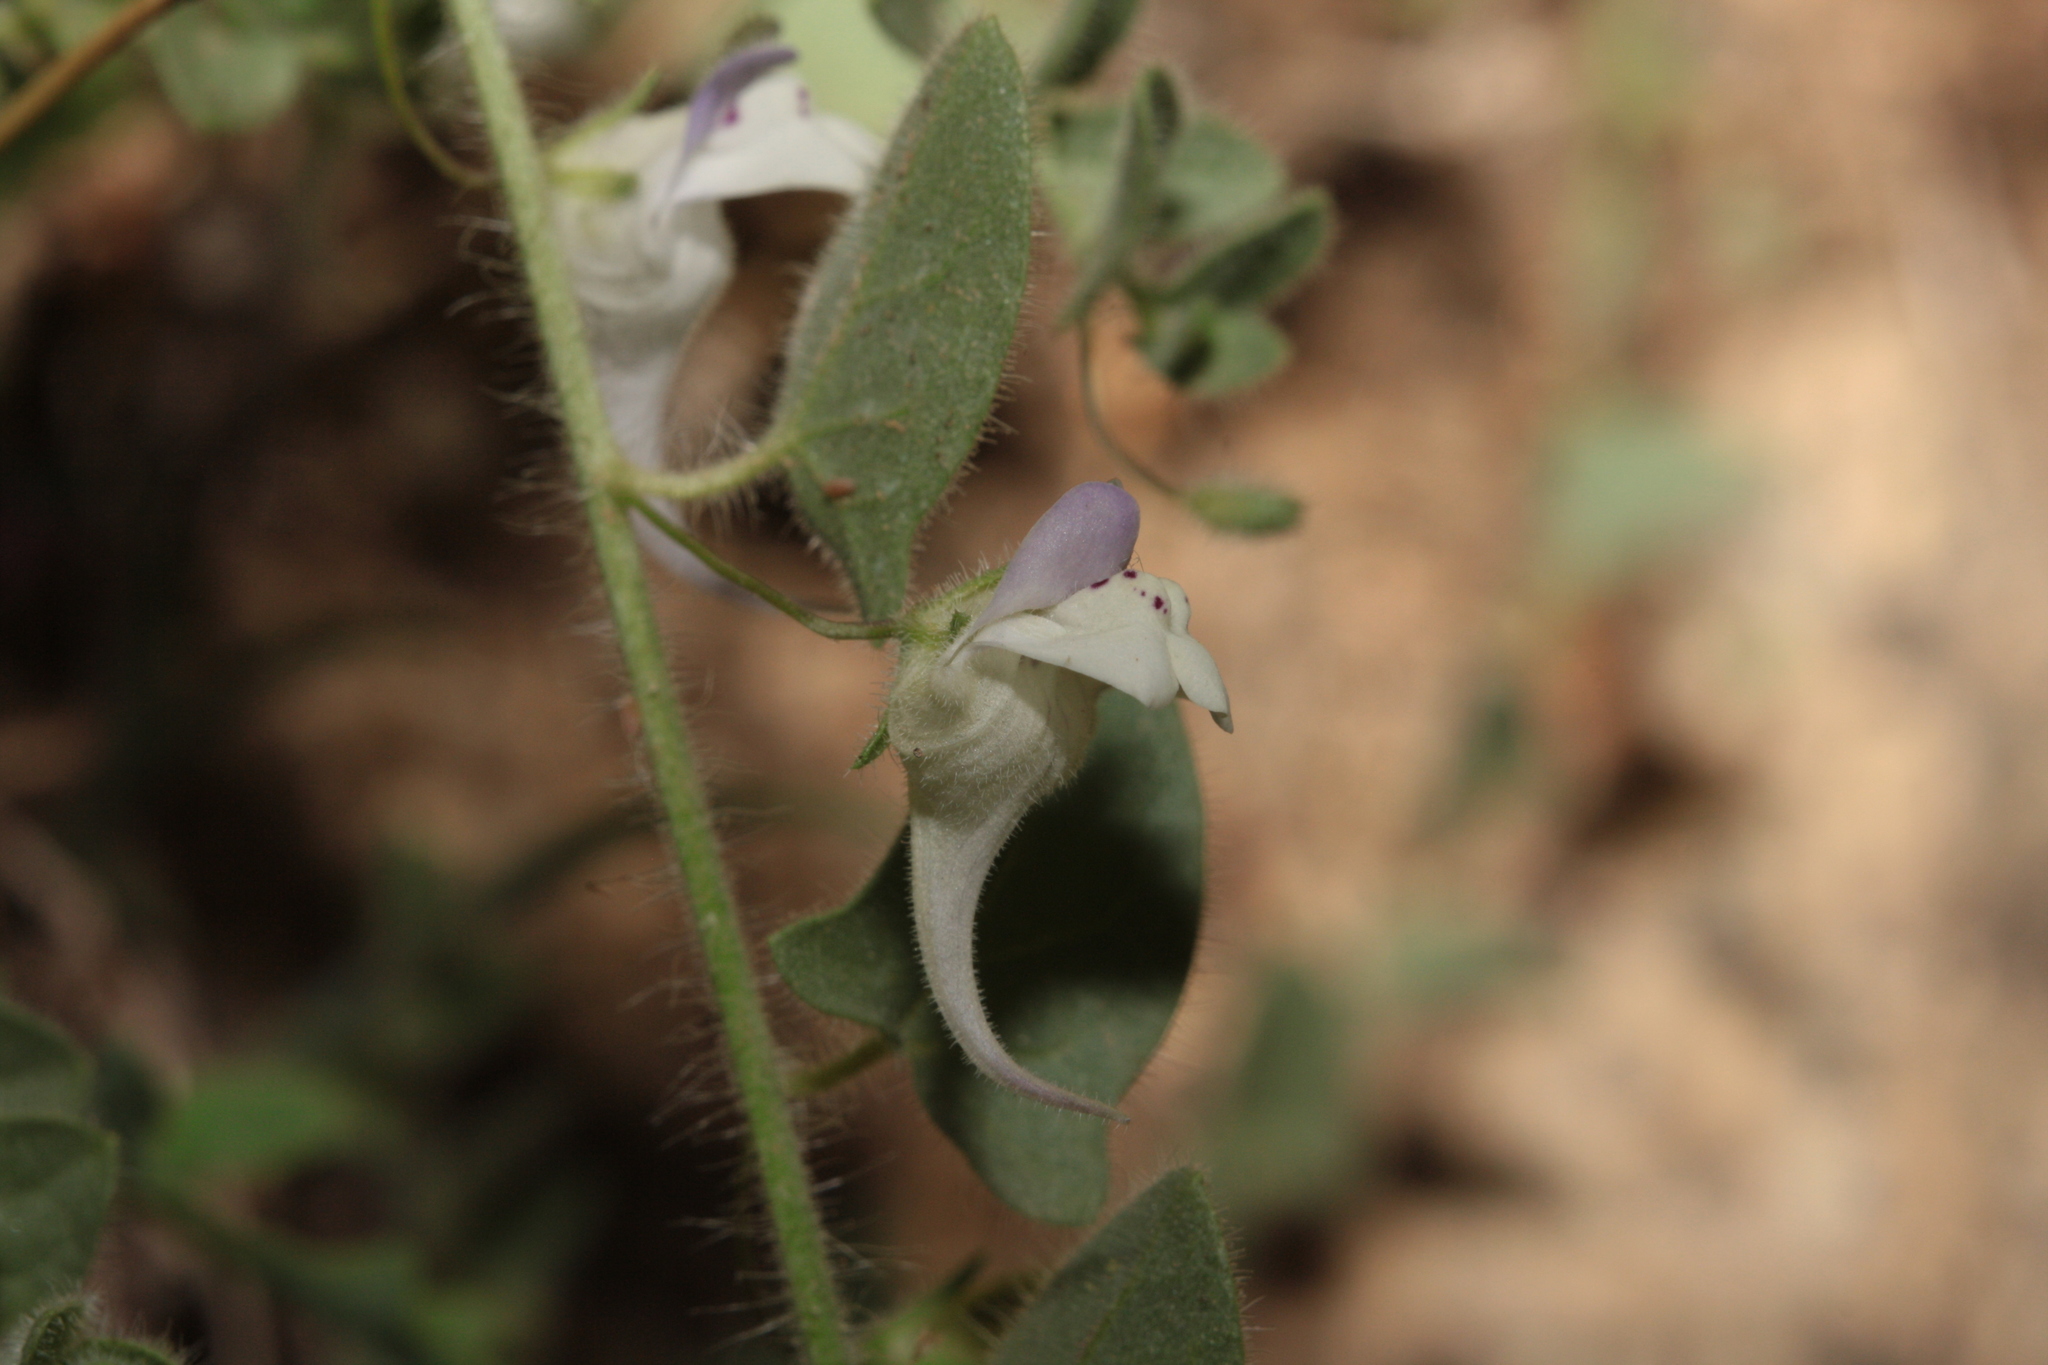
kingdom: Plantae
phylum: Tracheophyta
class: Magnoliopsida
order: Lamiales
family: Plantaginaceae
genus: Kickxia
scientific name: Kickxia commutata
